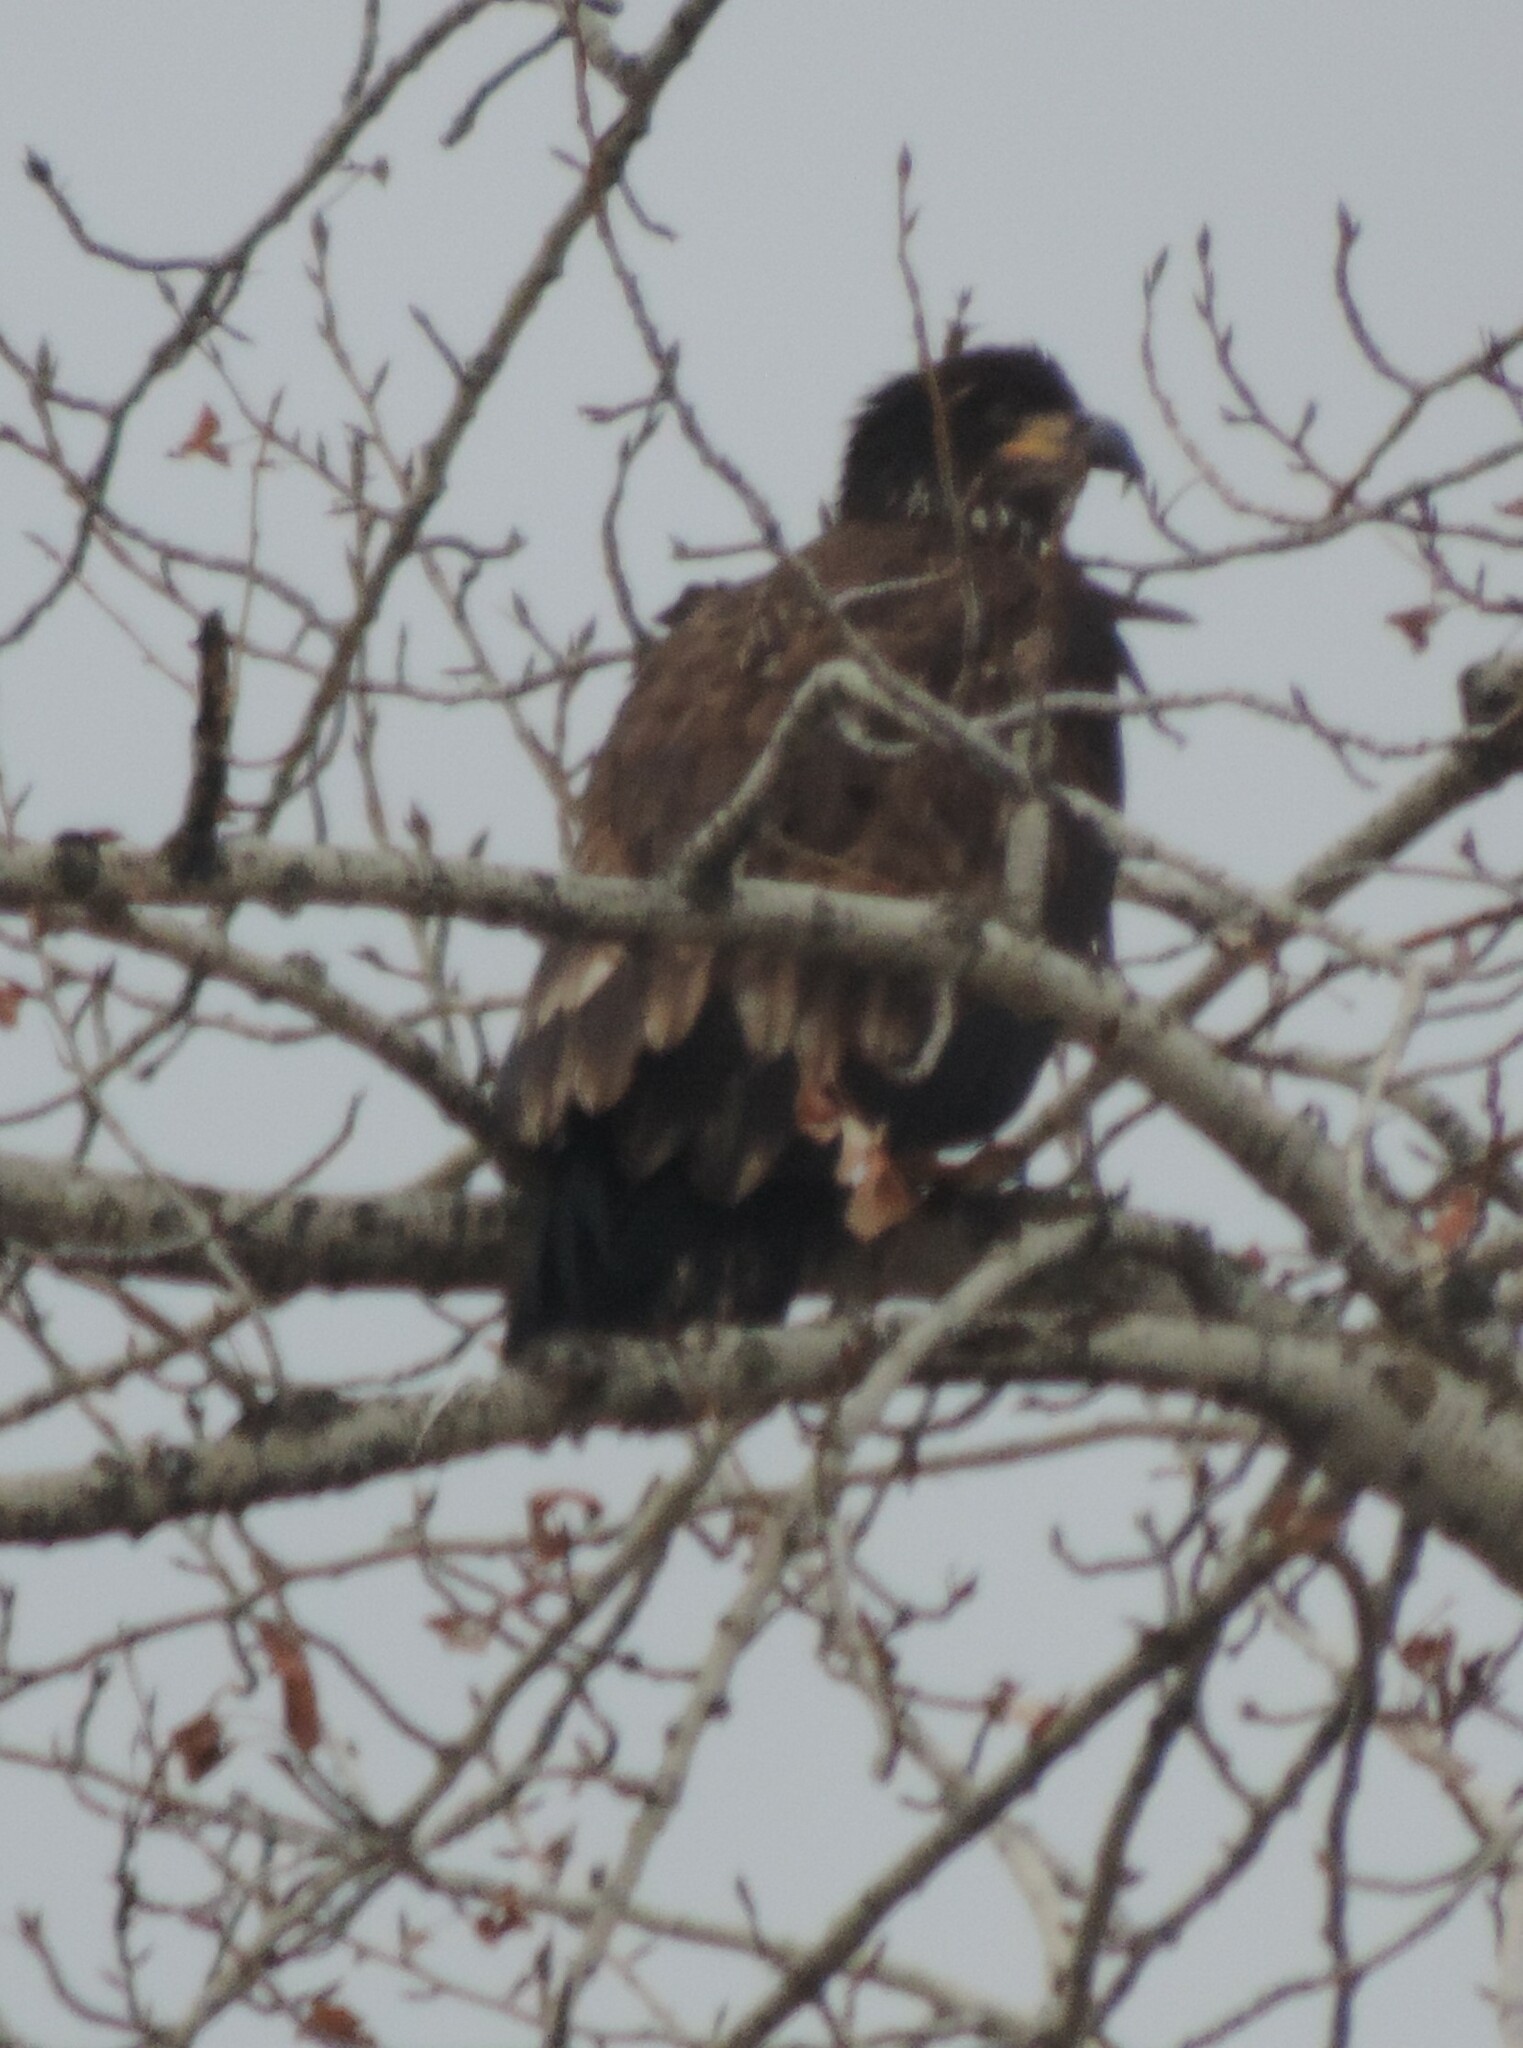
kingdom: Animalia
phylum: Chordata
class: Aves
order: Accipitriformes
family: Accipitridae
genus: Haliaeetus
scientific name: Haliaeetus leucocephalus
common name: Bald eagle
